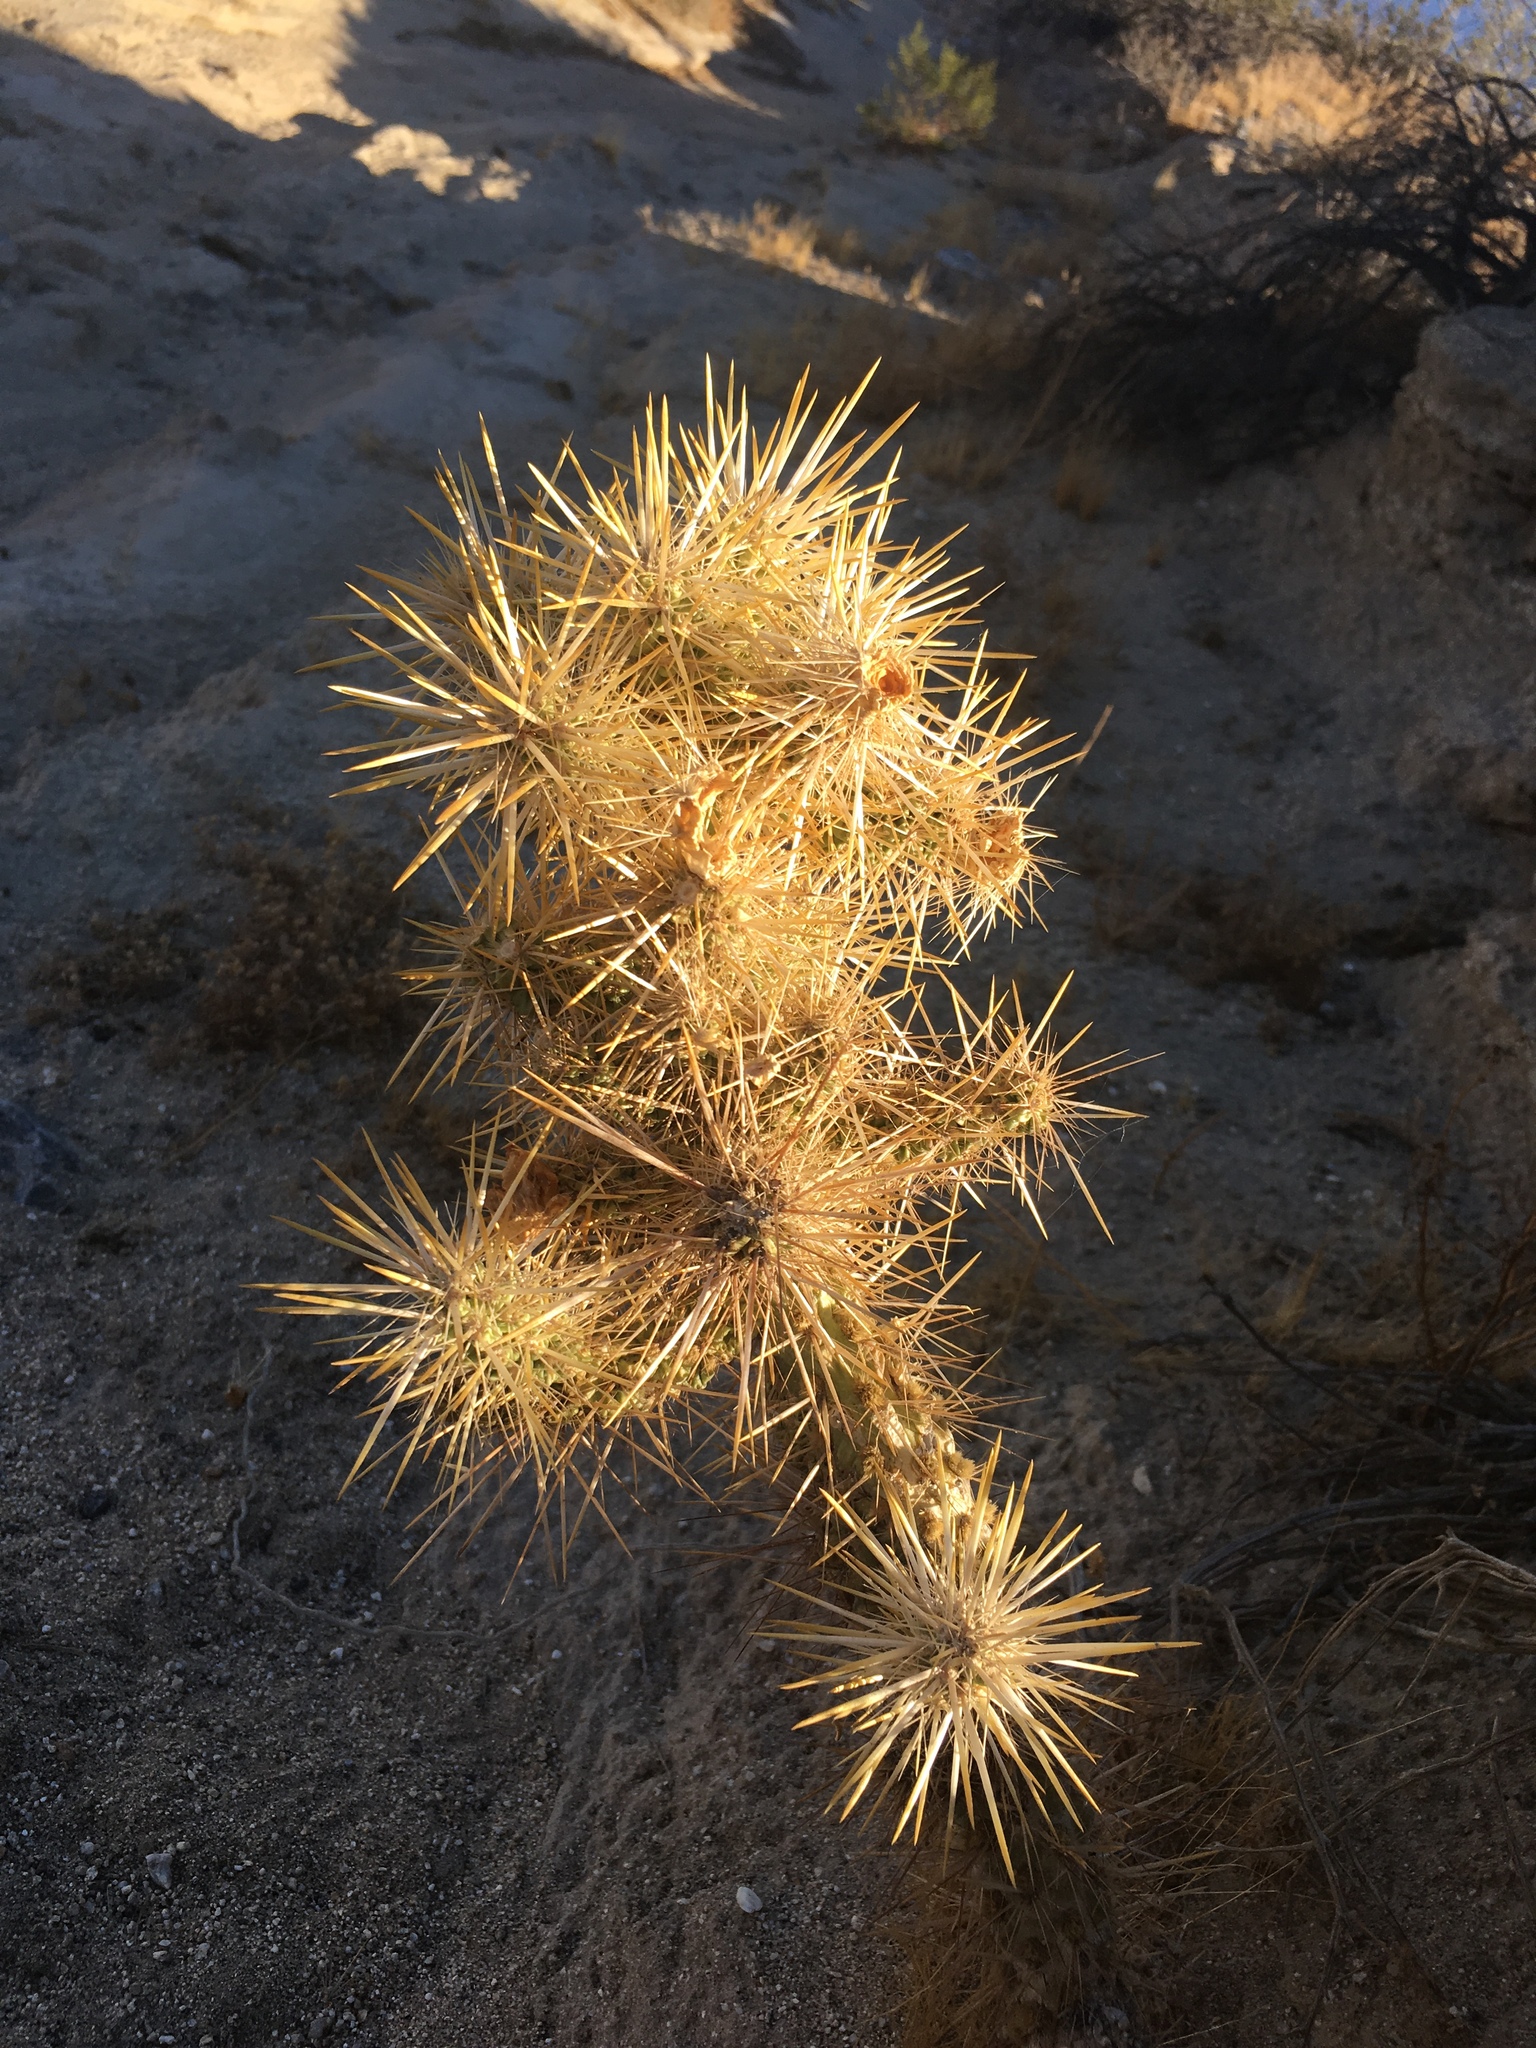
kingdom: Plantae
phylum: Tracheophyta
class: Magnoliopsida
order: Caryophyllales
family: Cactaceae
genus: Cylindropuntia
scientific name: Cylindropuntia echinocarpa
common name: Ground cholla
